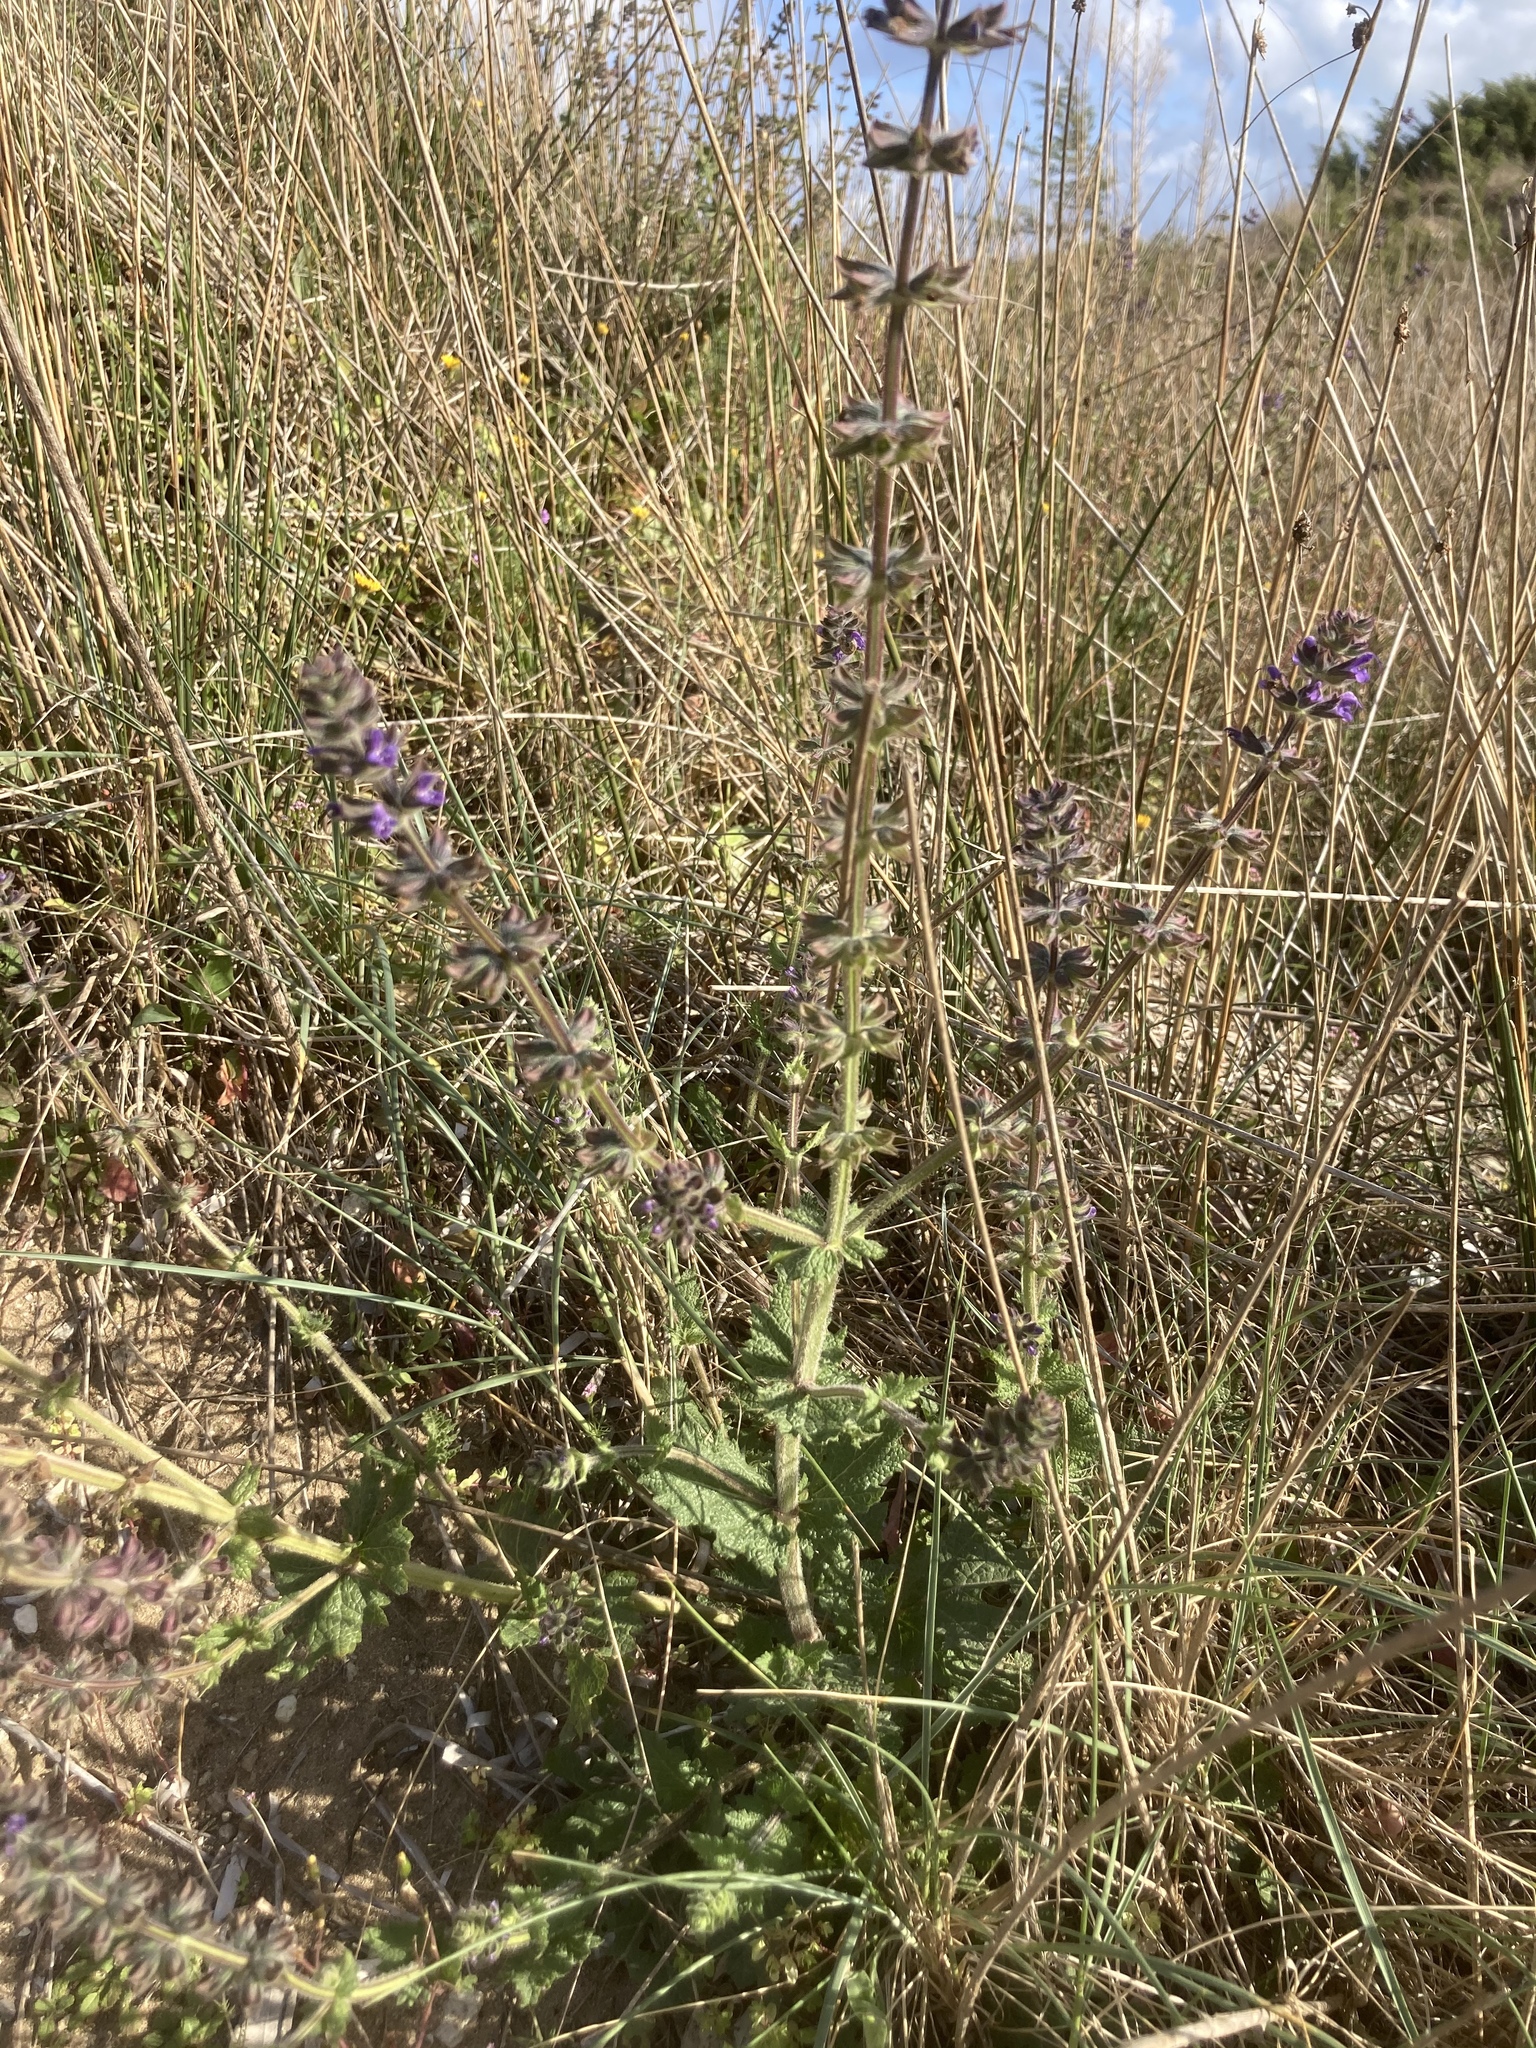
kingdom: Plantae
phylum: Tracheophyta
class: Magnoliopsida
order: Lamiales
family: Lamiaceae
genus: Salvia
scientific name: Salvia verbenaca
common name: Wild clary
